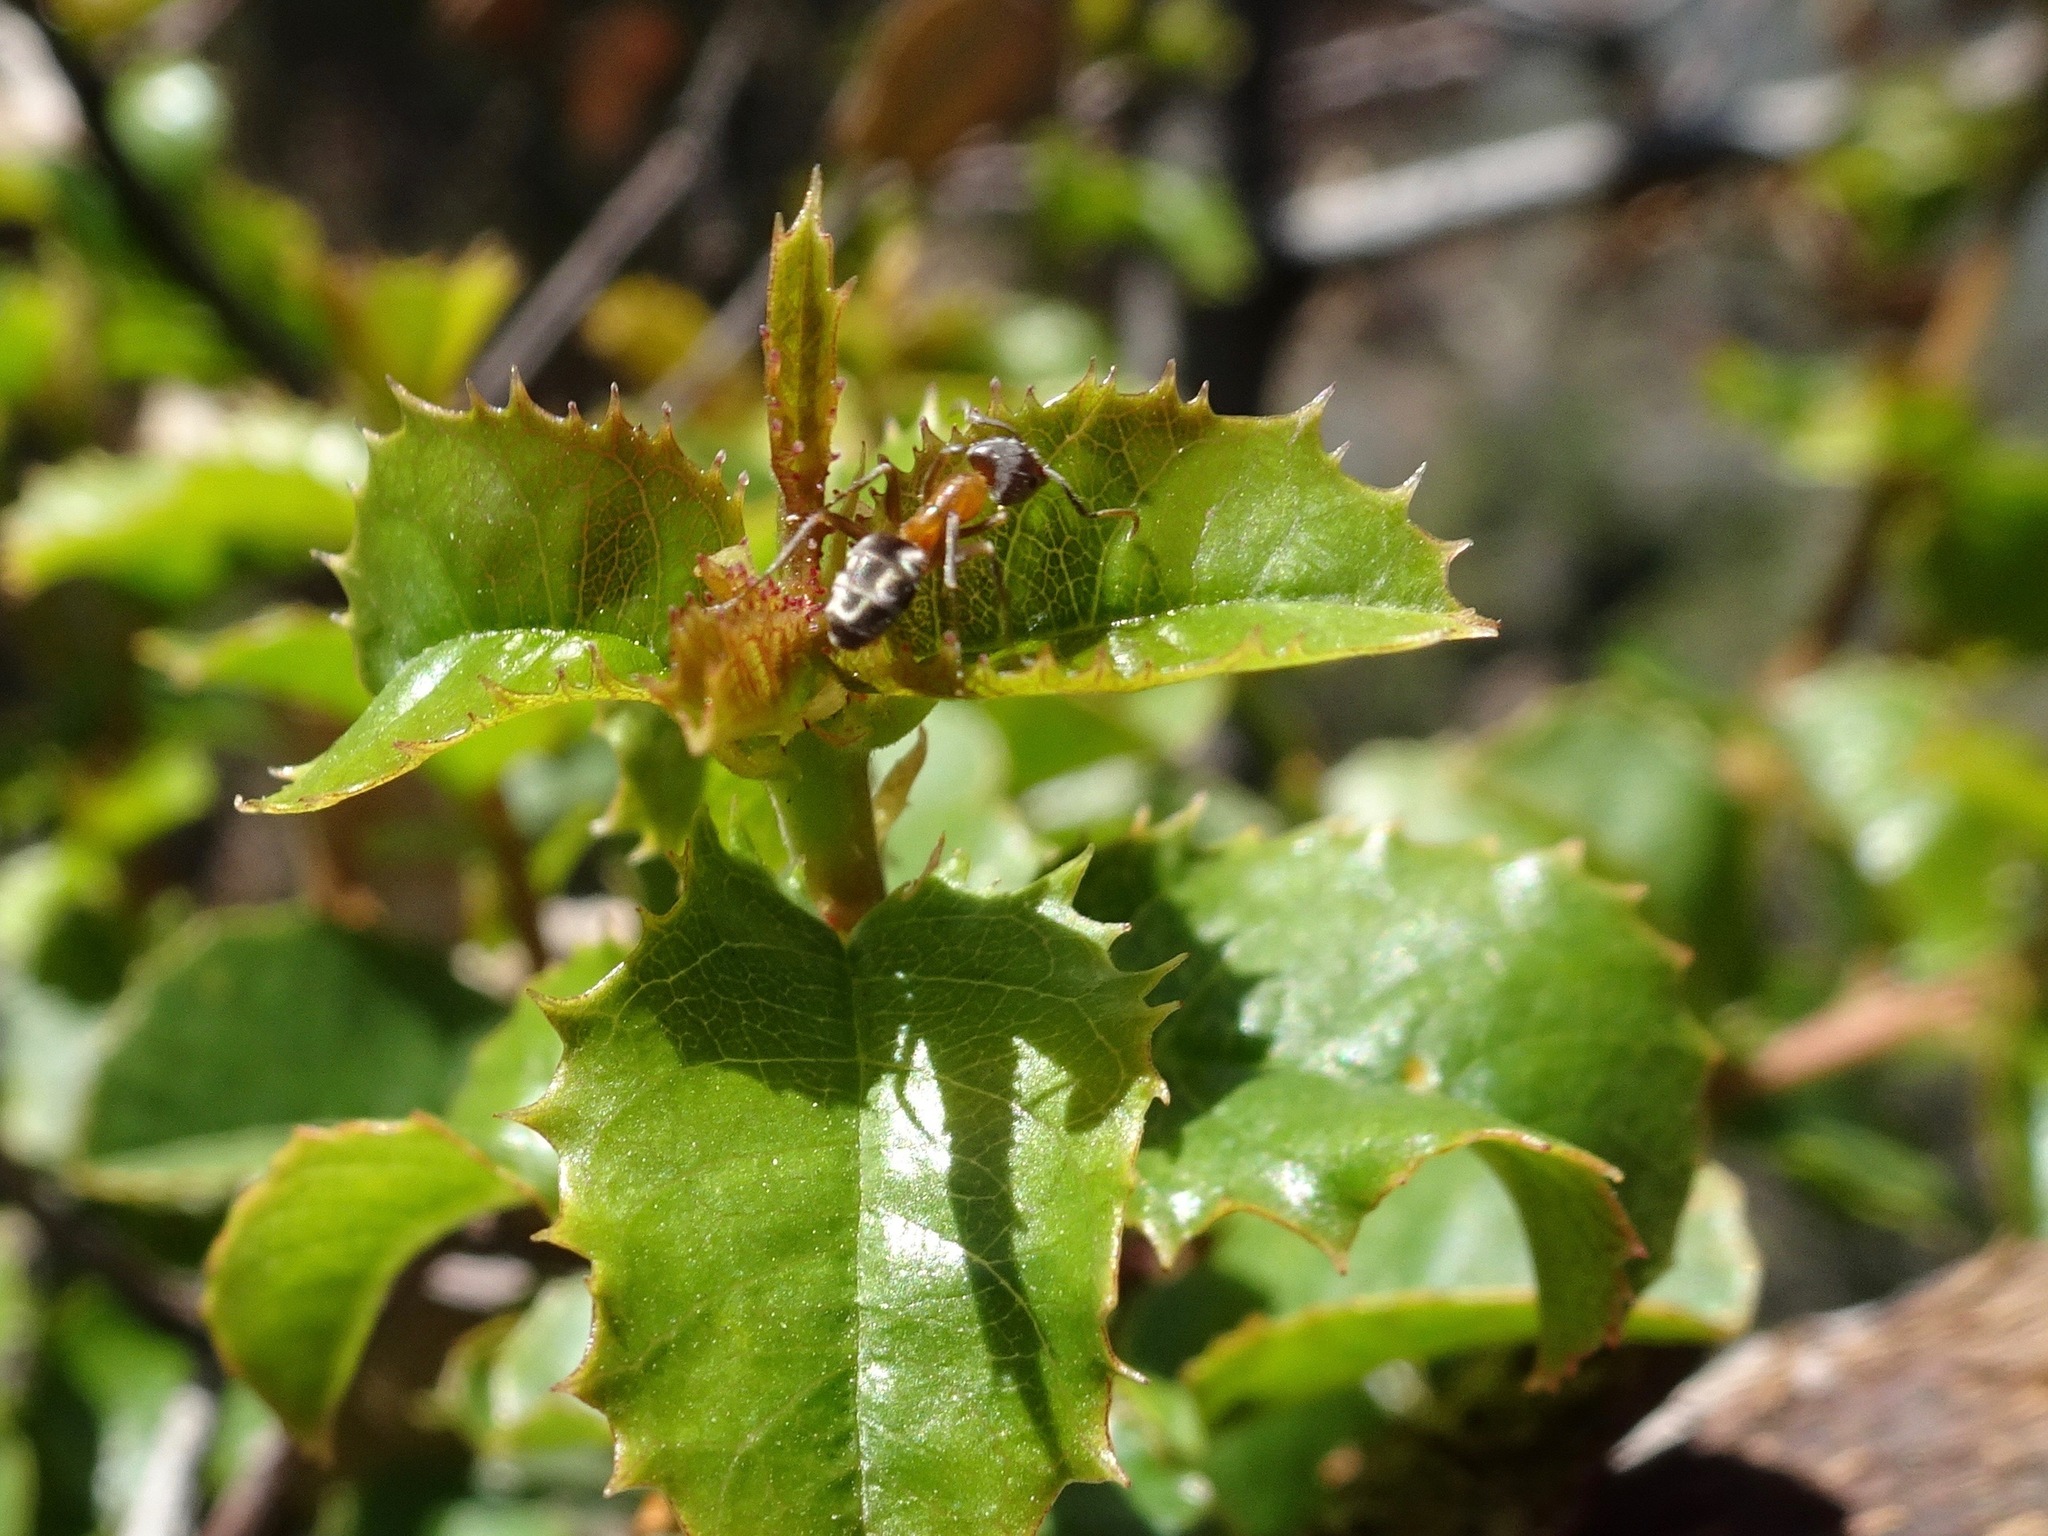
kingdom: Animalia
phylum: Arthropoda
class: Insecta
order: Hymenoptera
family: Formicidae
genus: Liometopum
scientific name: Liometopum occidentale
